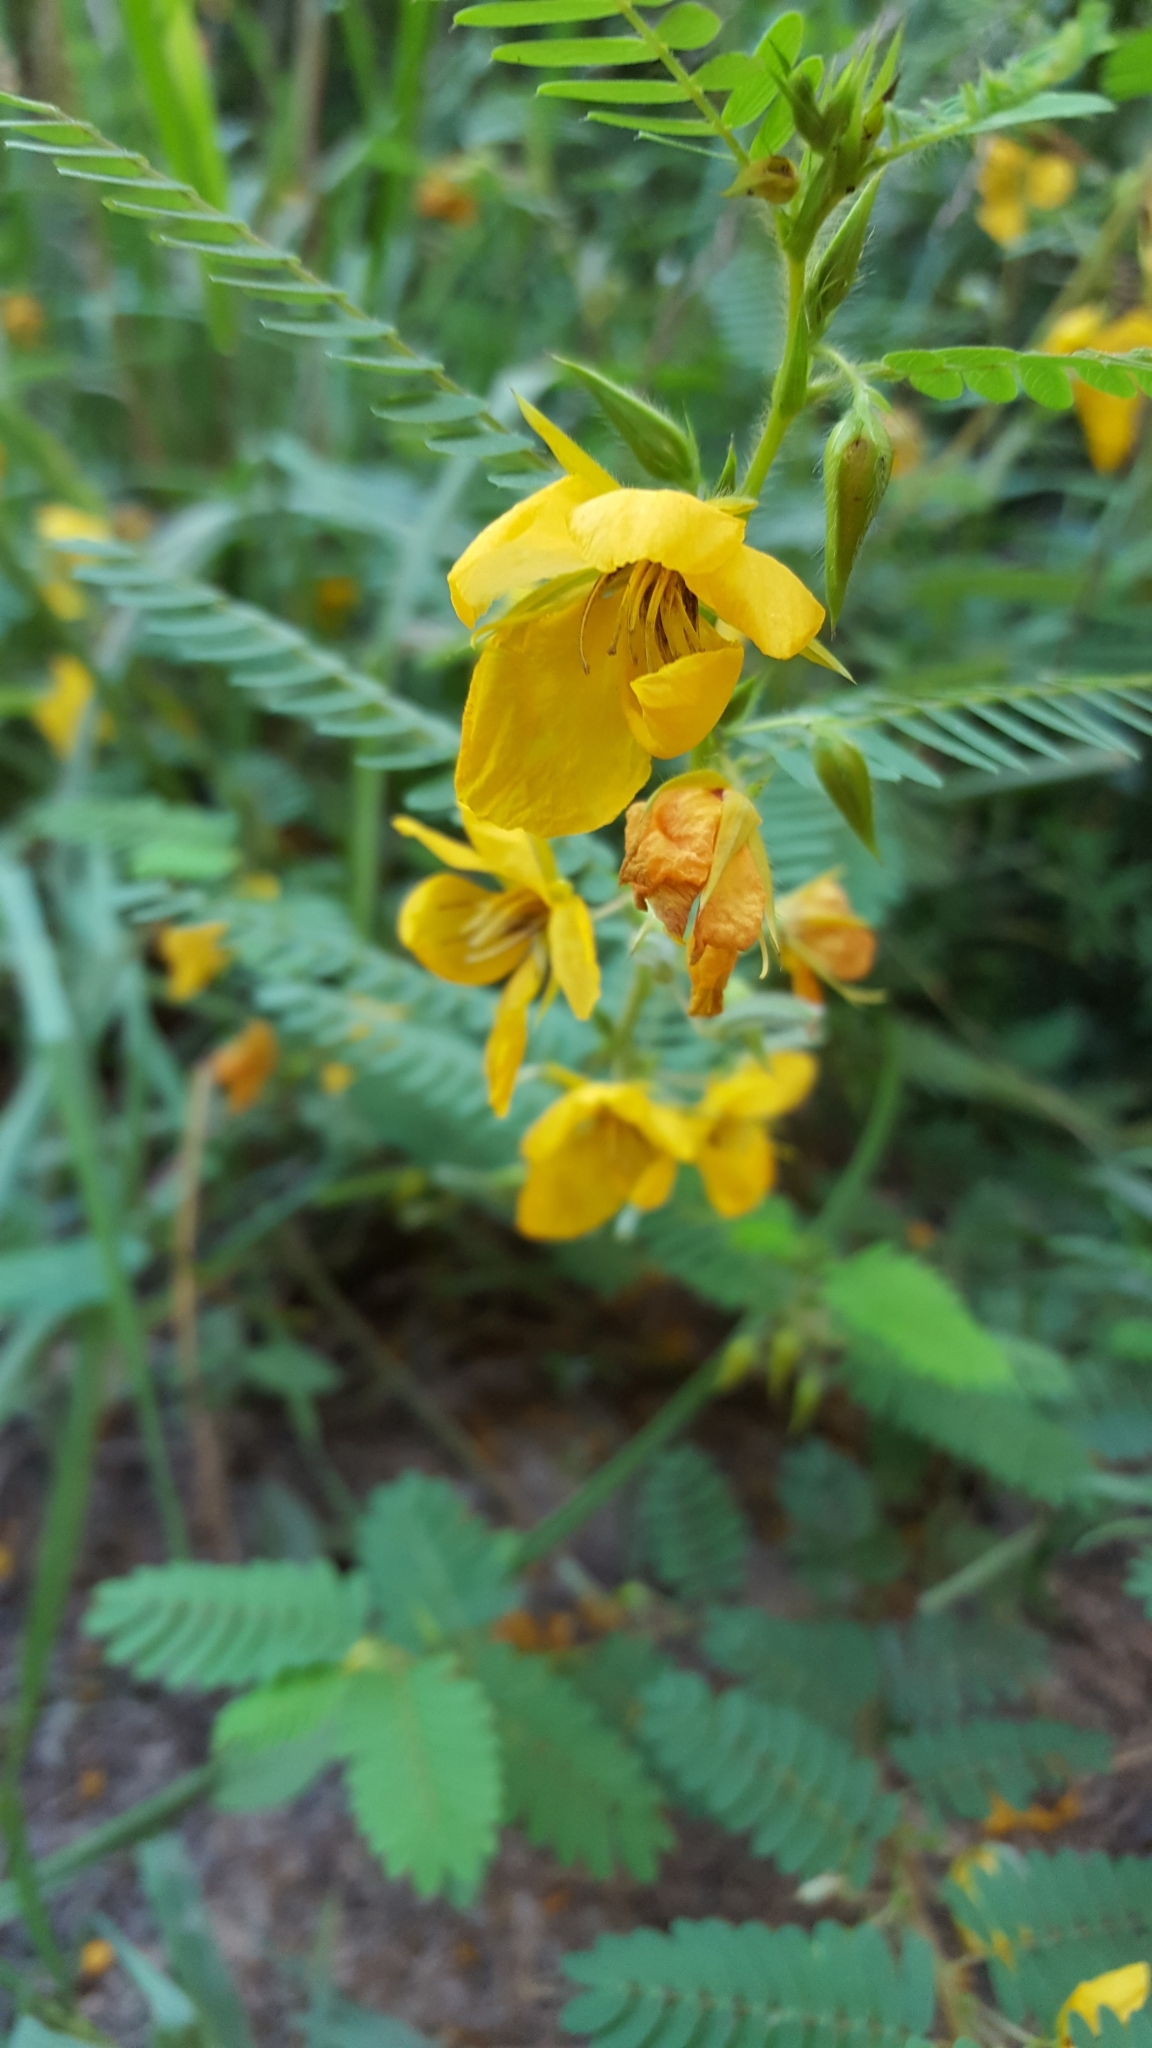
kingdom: Plantae
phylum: Tracheophyta
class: Magnoliopsida
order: Fabales
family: Fabaceae
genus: Chamaecrista
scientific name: Chamaecrista fasciculata
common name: Golden cassia
